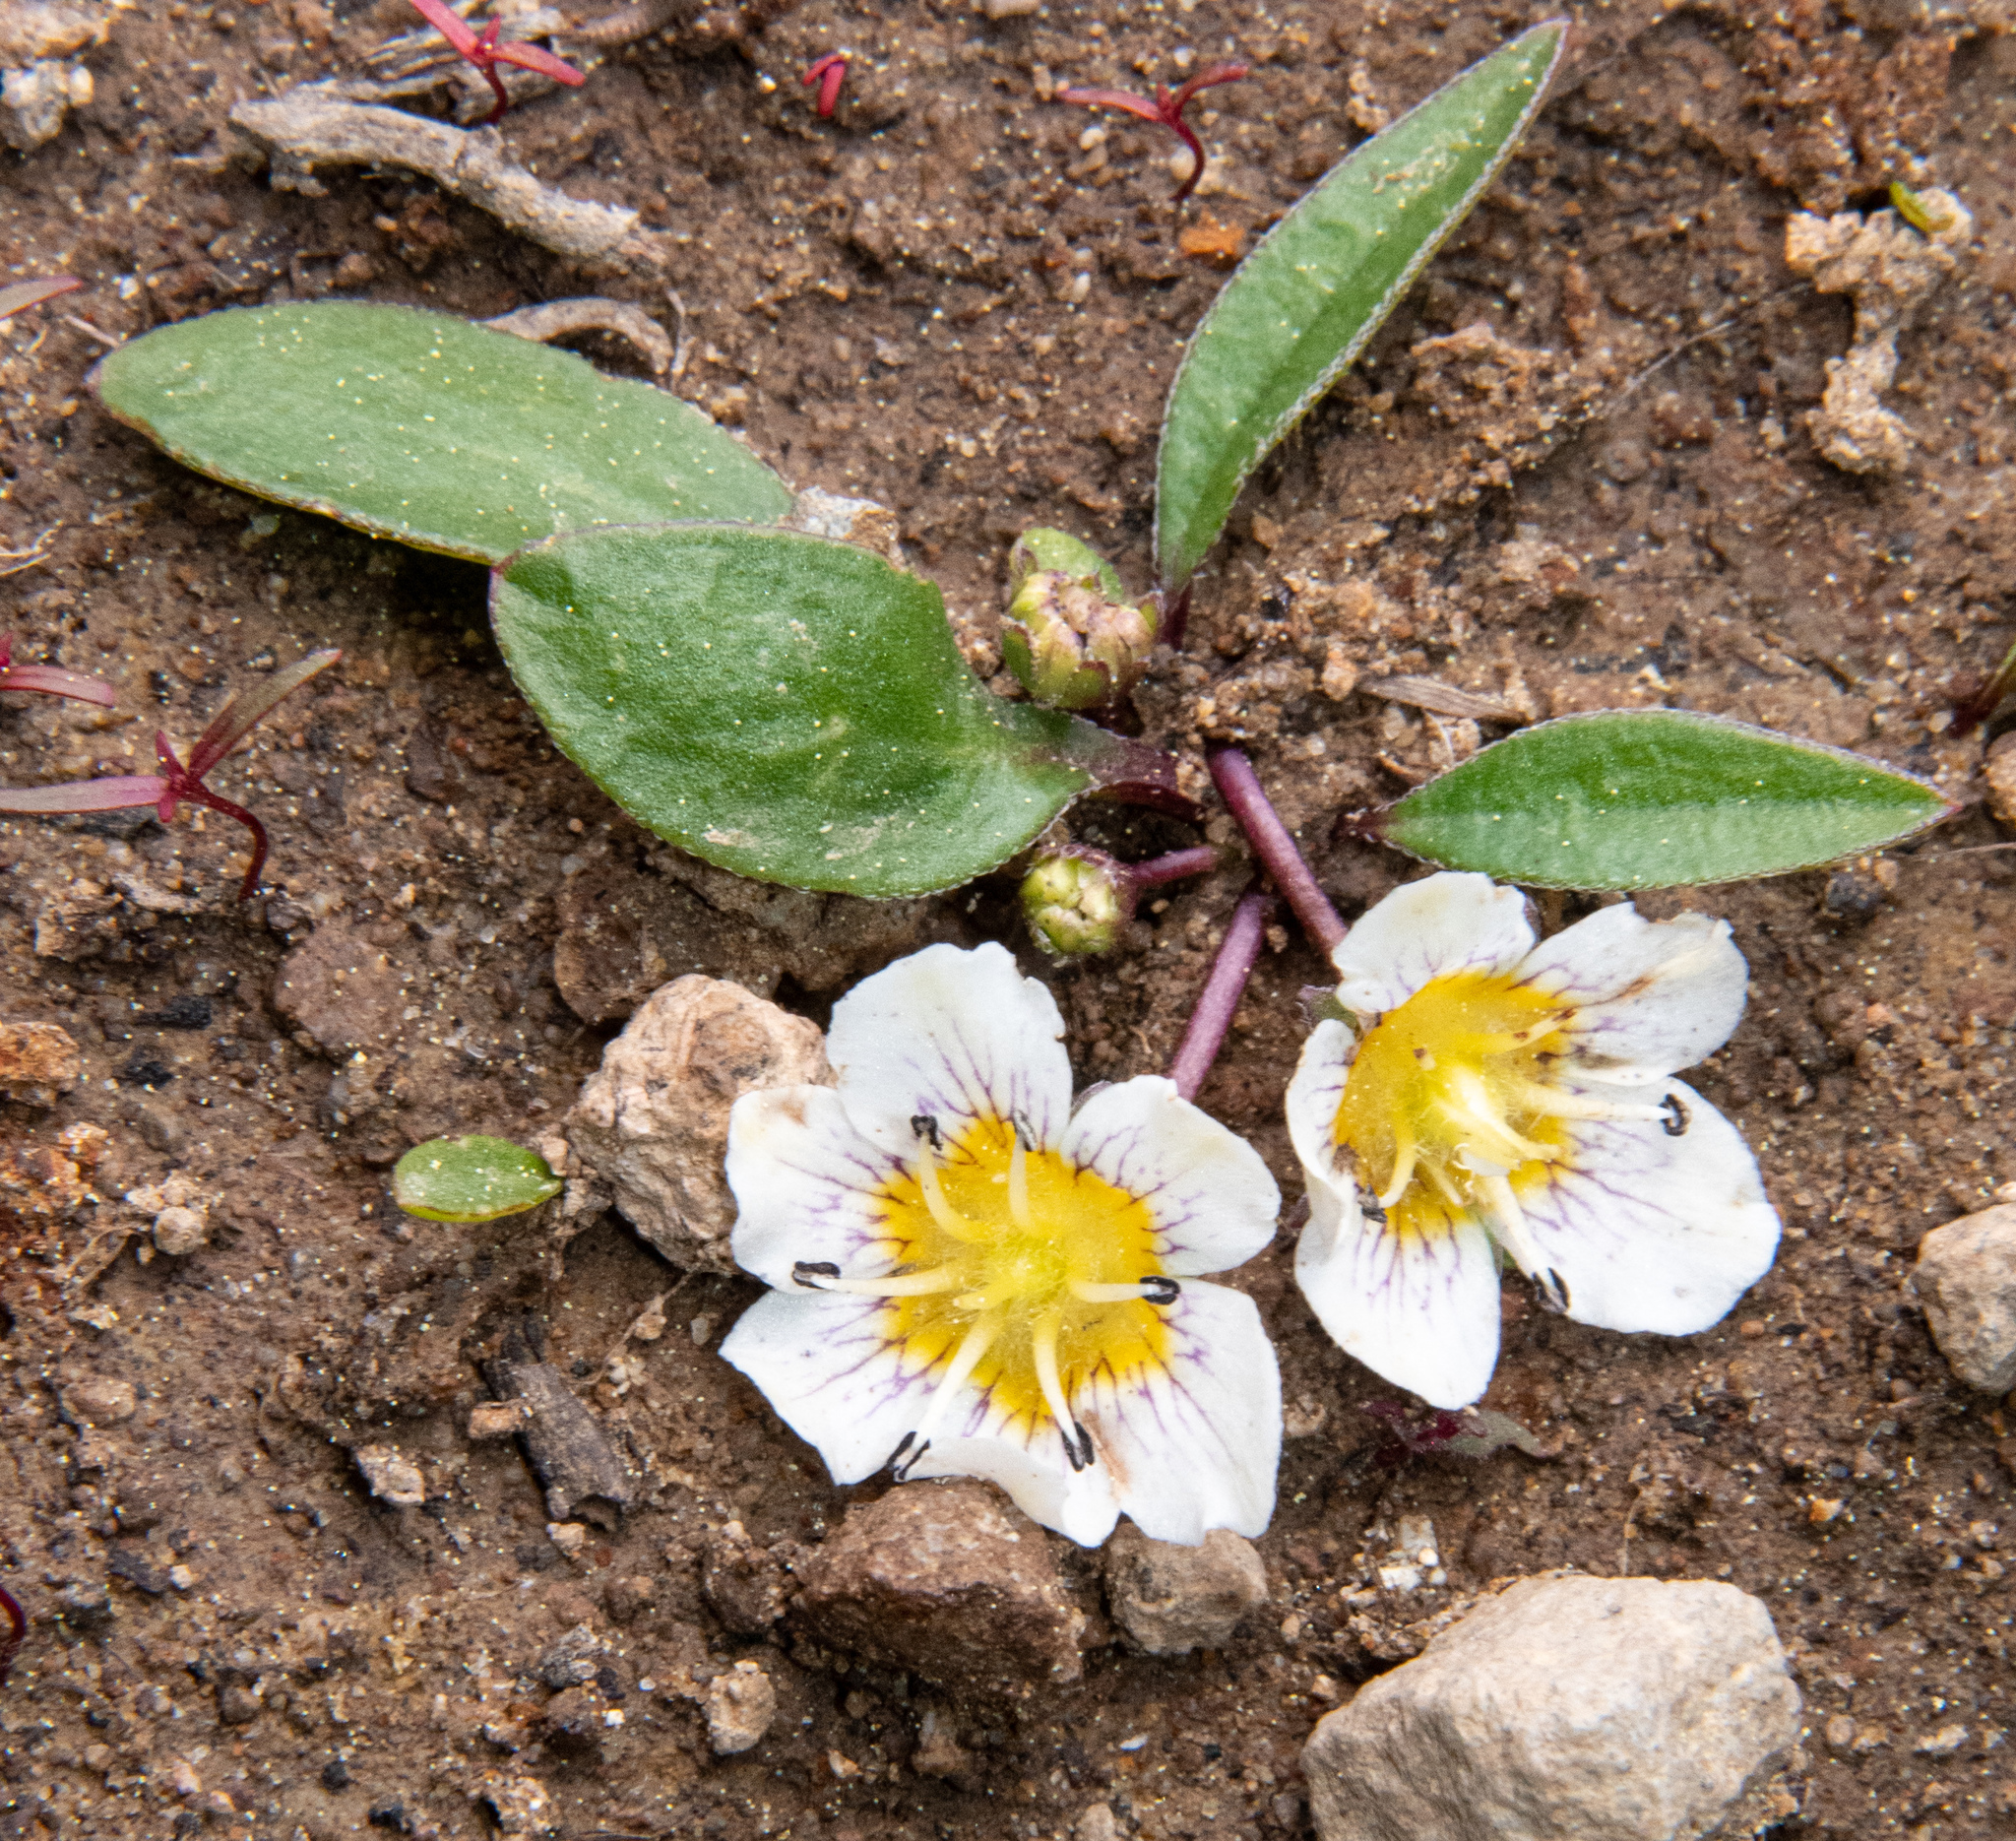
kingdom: Plantae
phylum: Tracheophyta
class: Magnoliopsida
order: Boraginales
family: Hydrophyllaceae
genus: Hesperochiron
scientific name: Hesperochiron pumilus
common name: Dwarf hesperochiron
